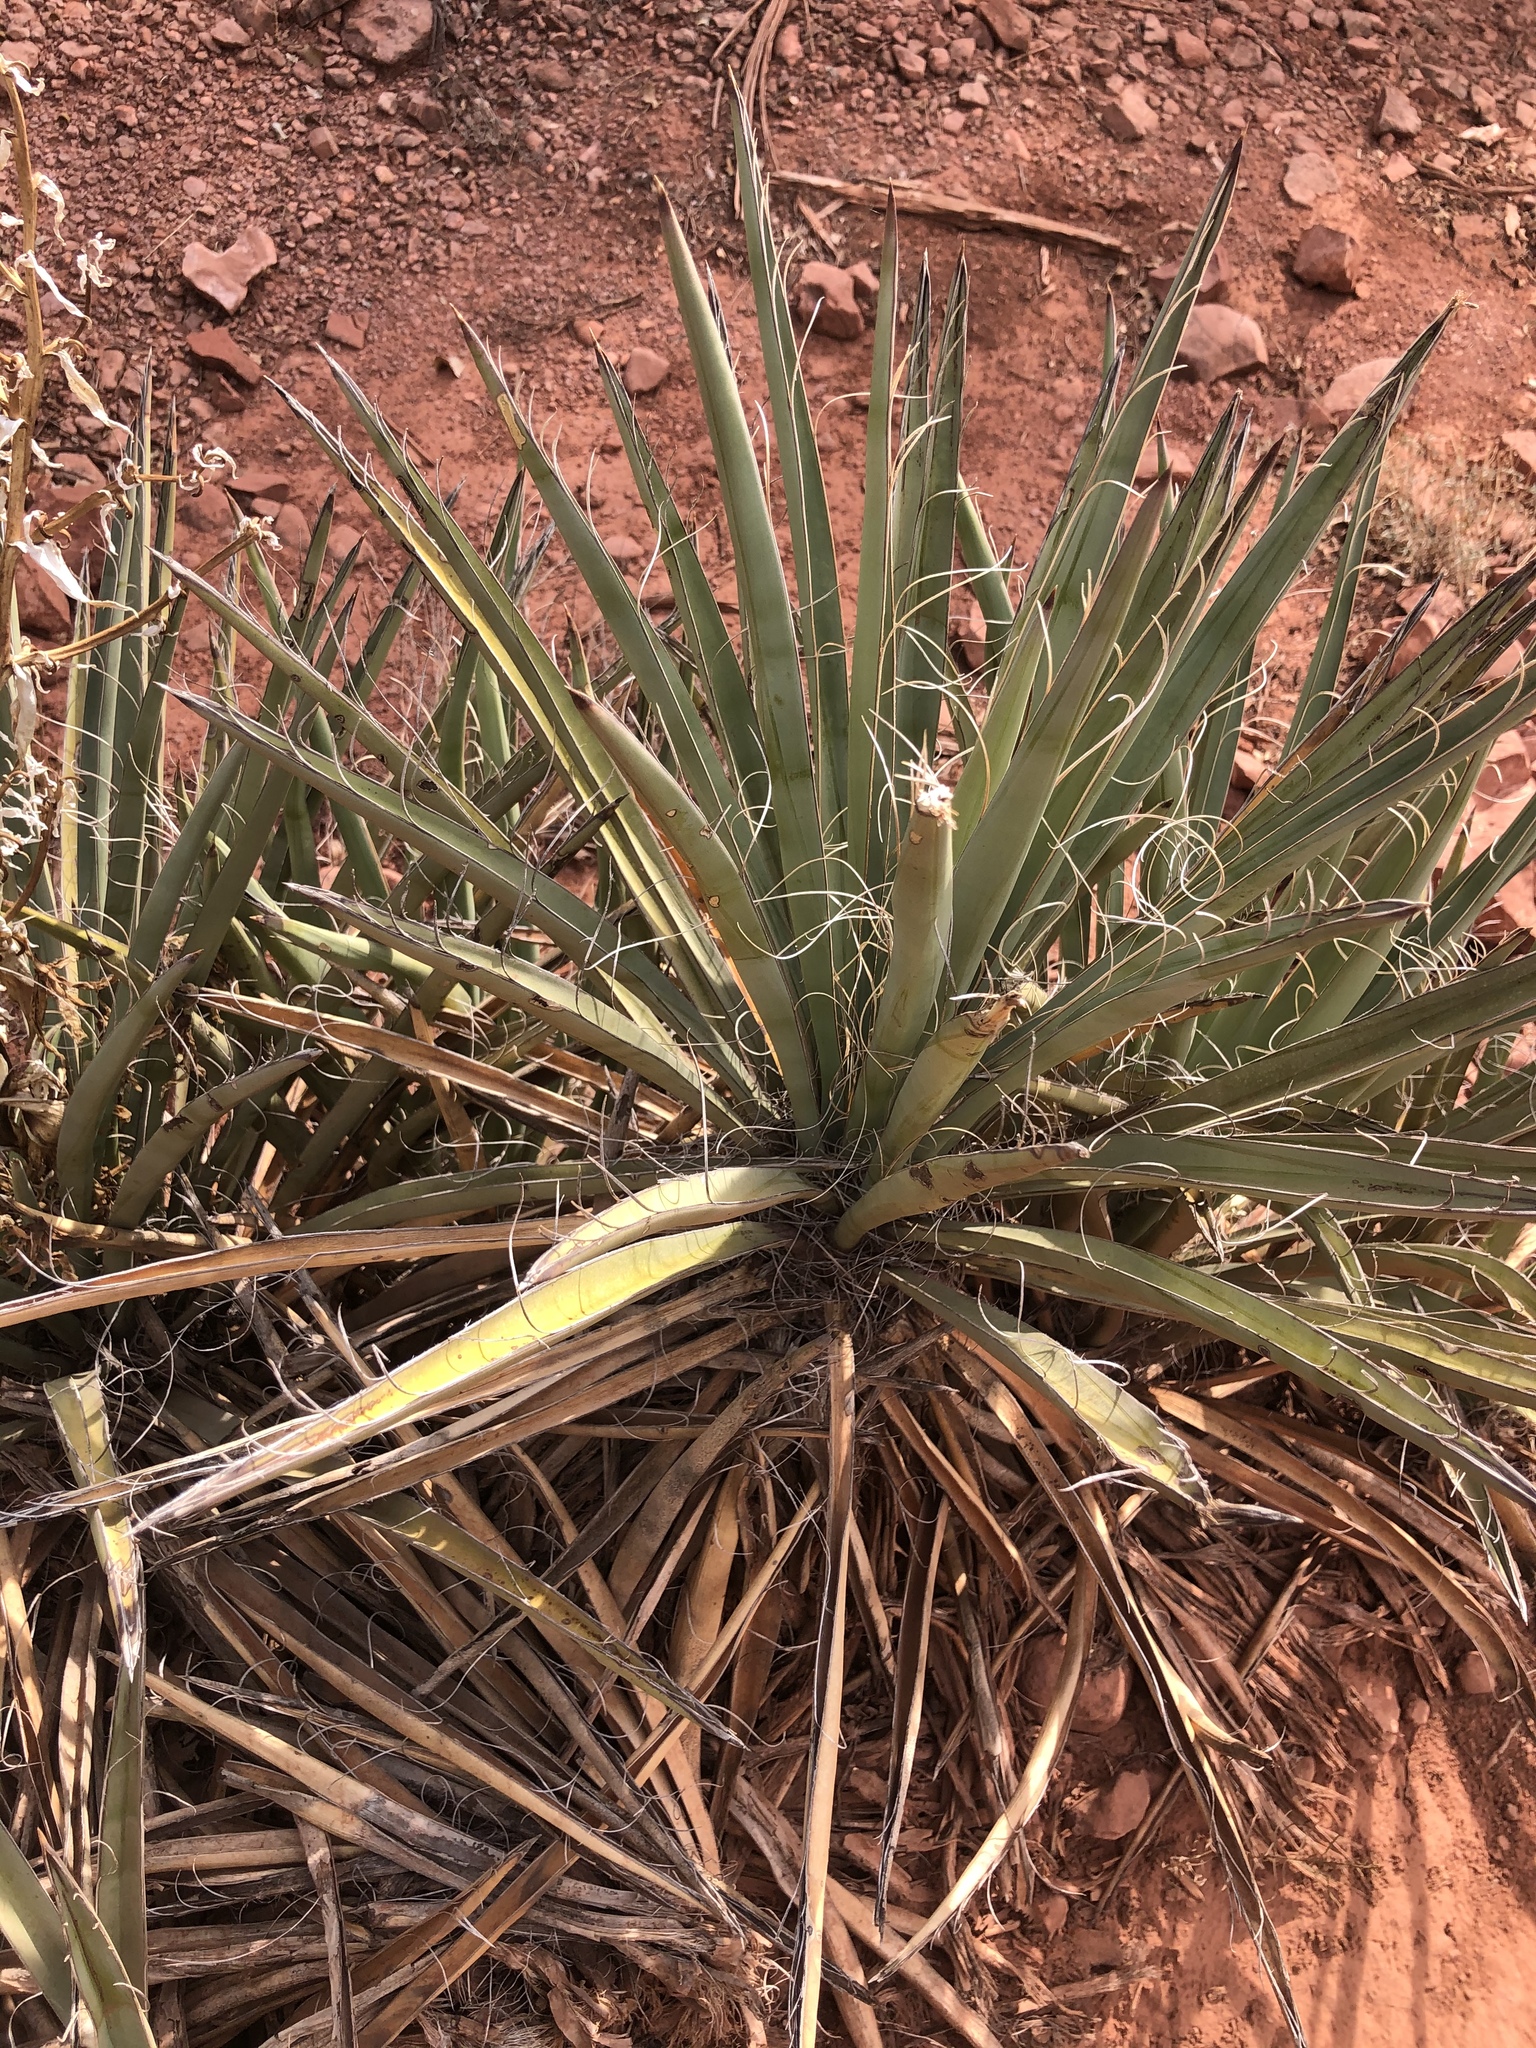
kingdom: Plantae
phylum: Tracheophyta
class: Liliopsida
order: Asparagales
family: Asparagaceae
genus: Yucca
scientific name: Yucca baccata
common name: Banana yucca
